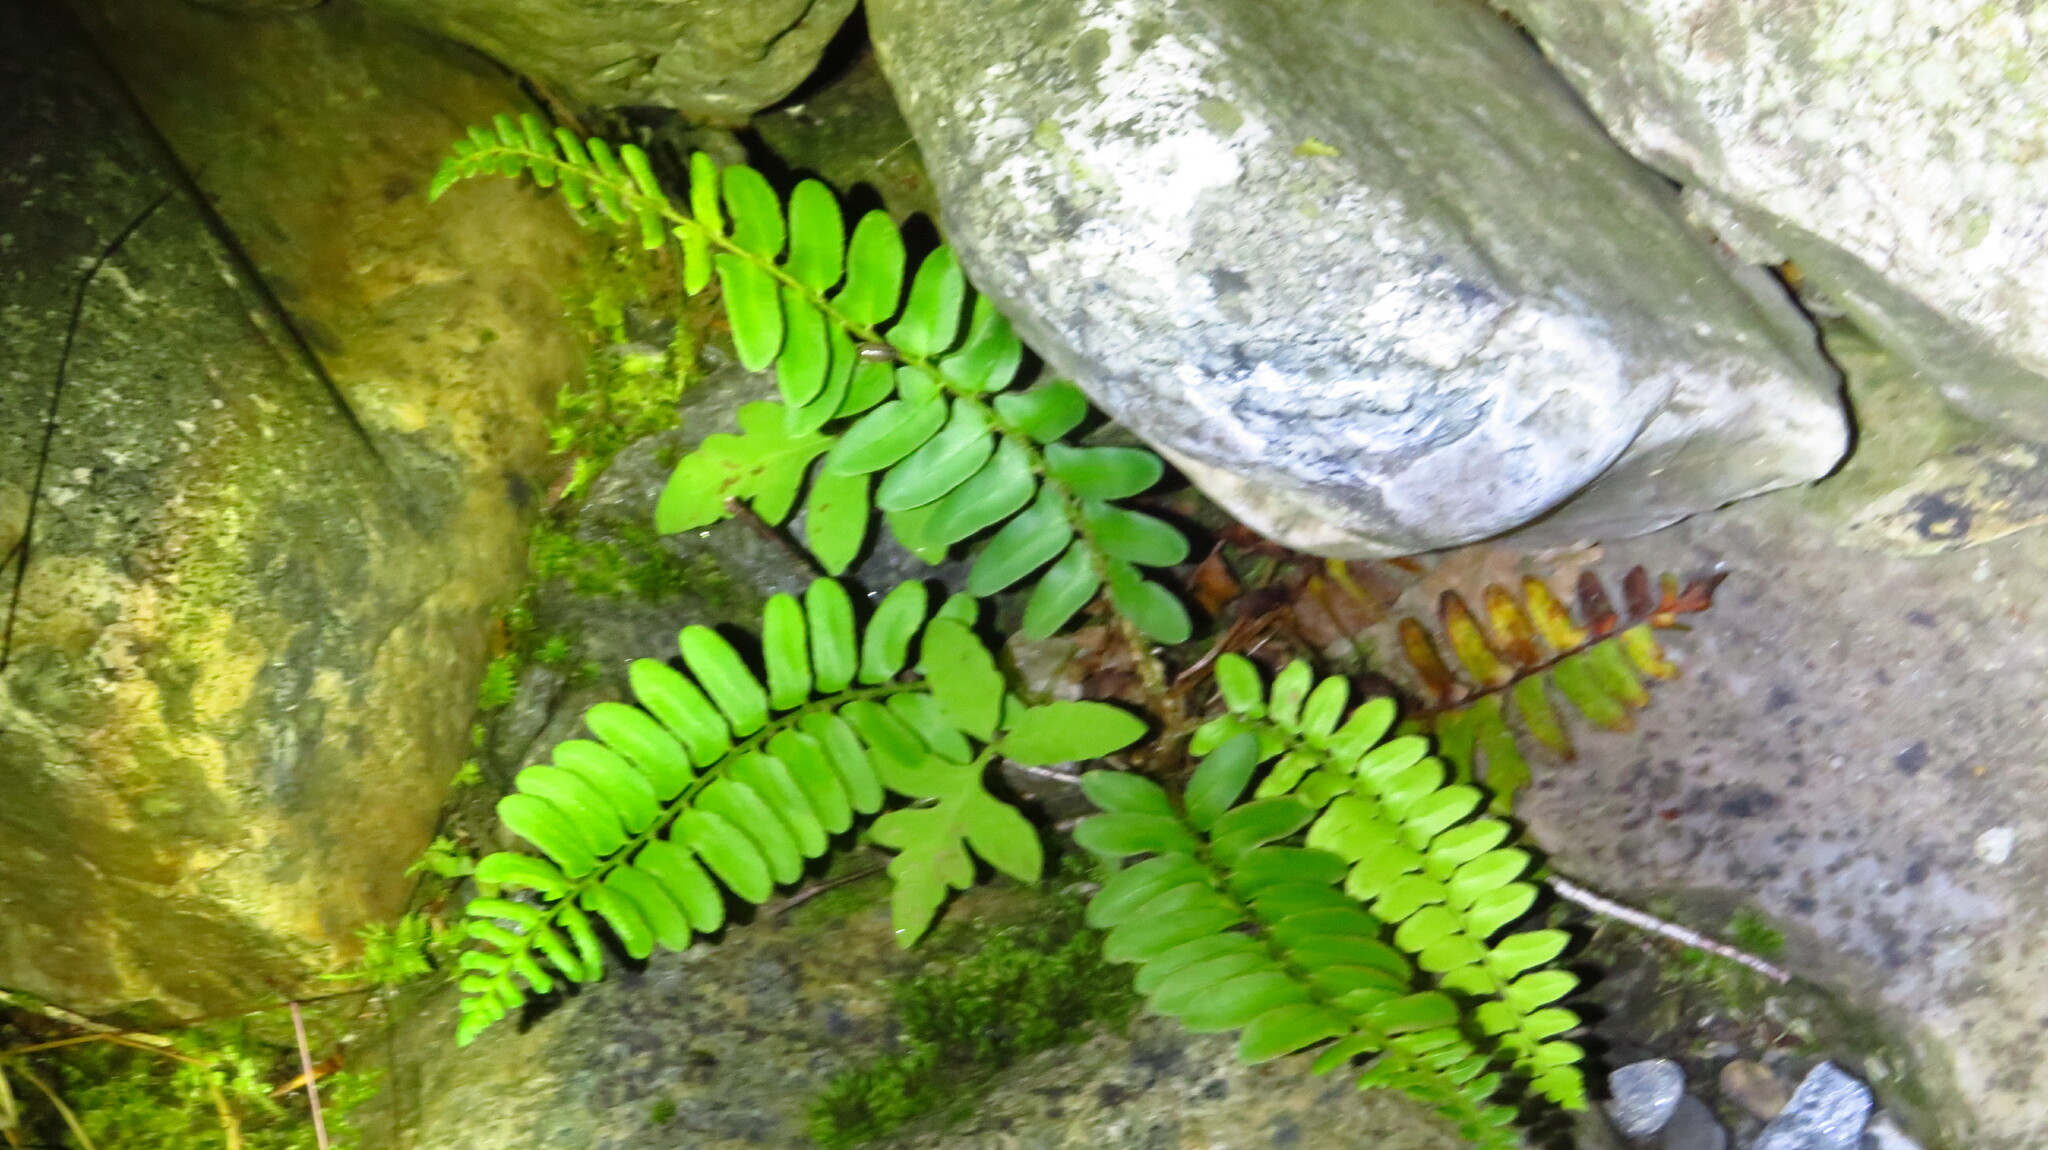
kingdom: Plantae
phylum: Tracheophyta
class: Polypodiopsida
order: Polypodiales
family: Dryopteridaceae
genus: Polystichum
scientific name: Polystichum acrostichoides
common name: Christmas fern
